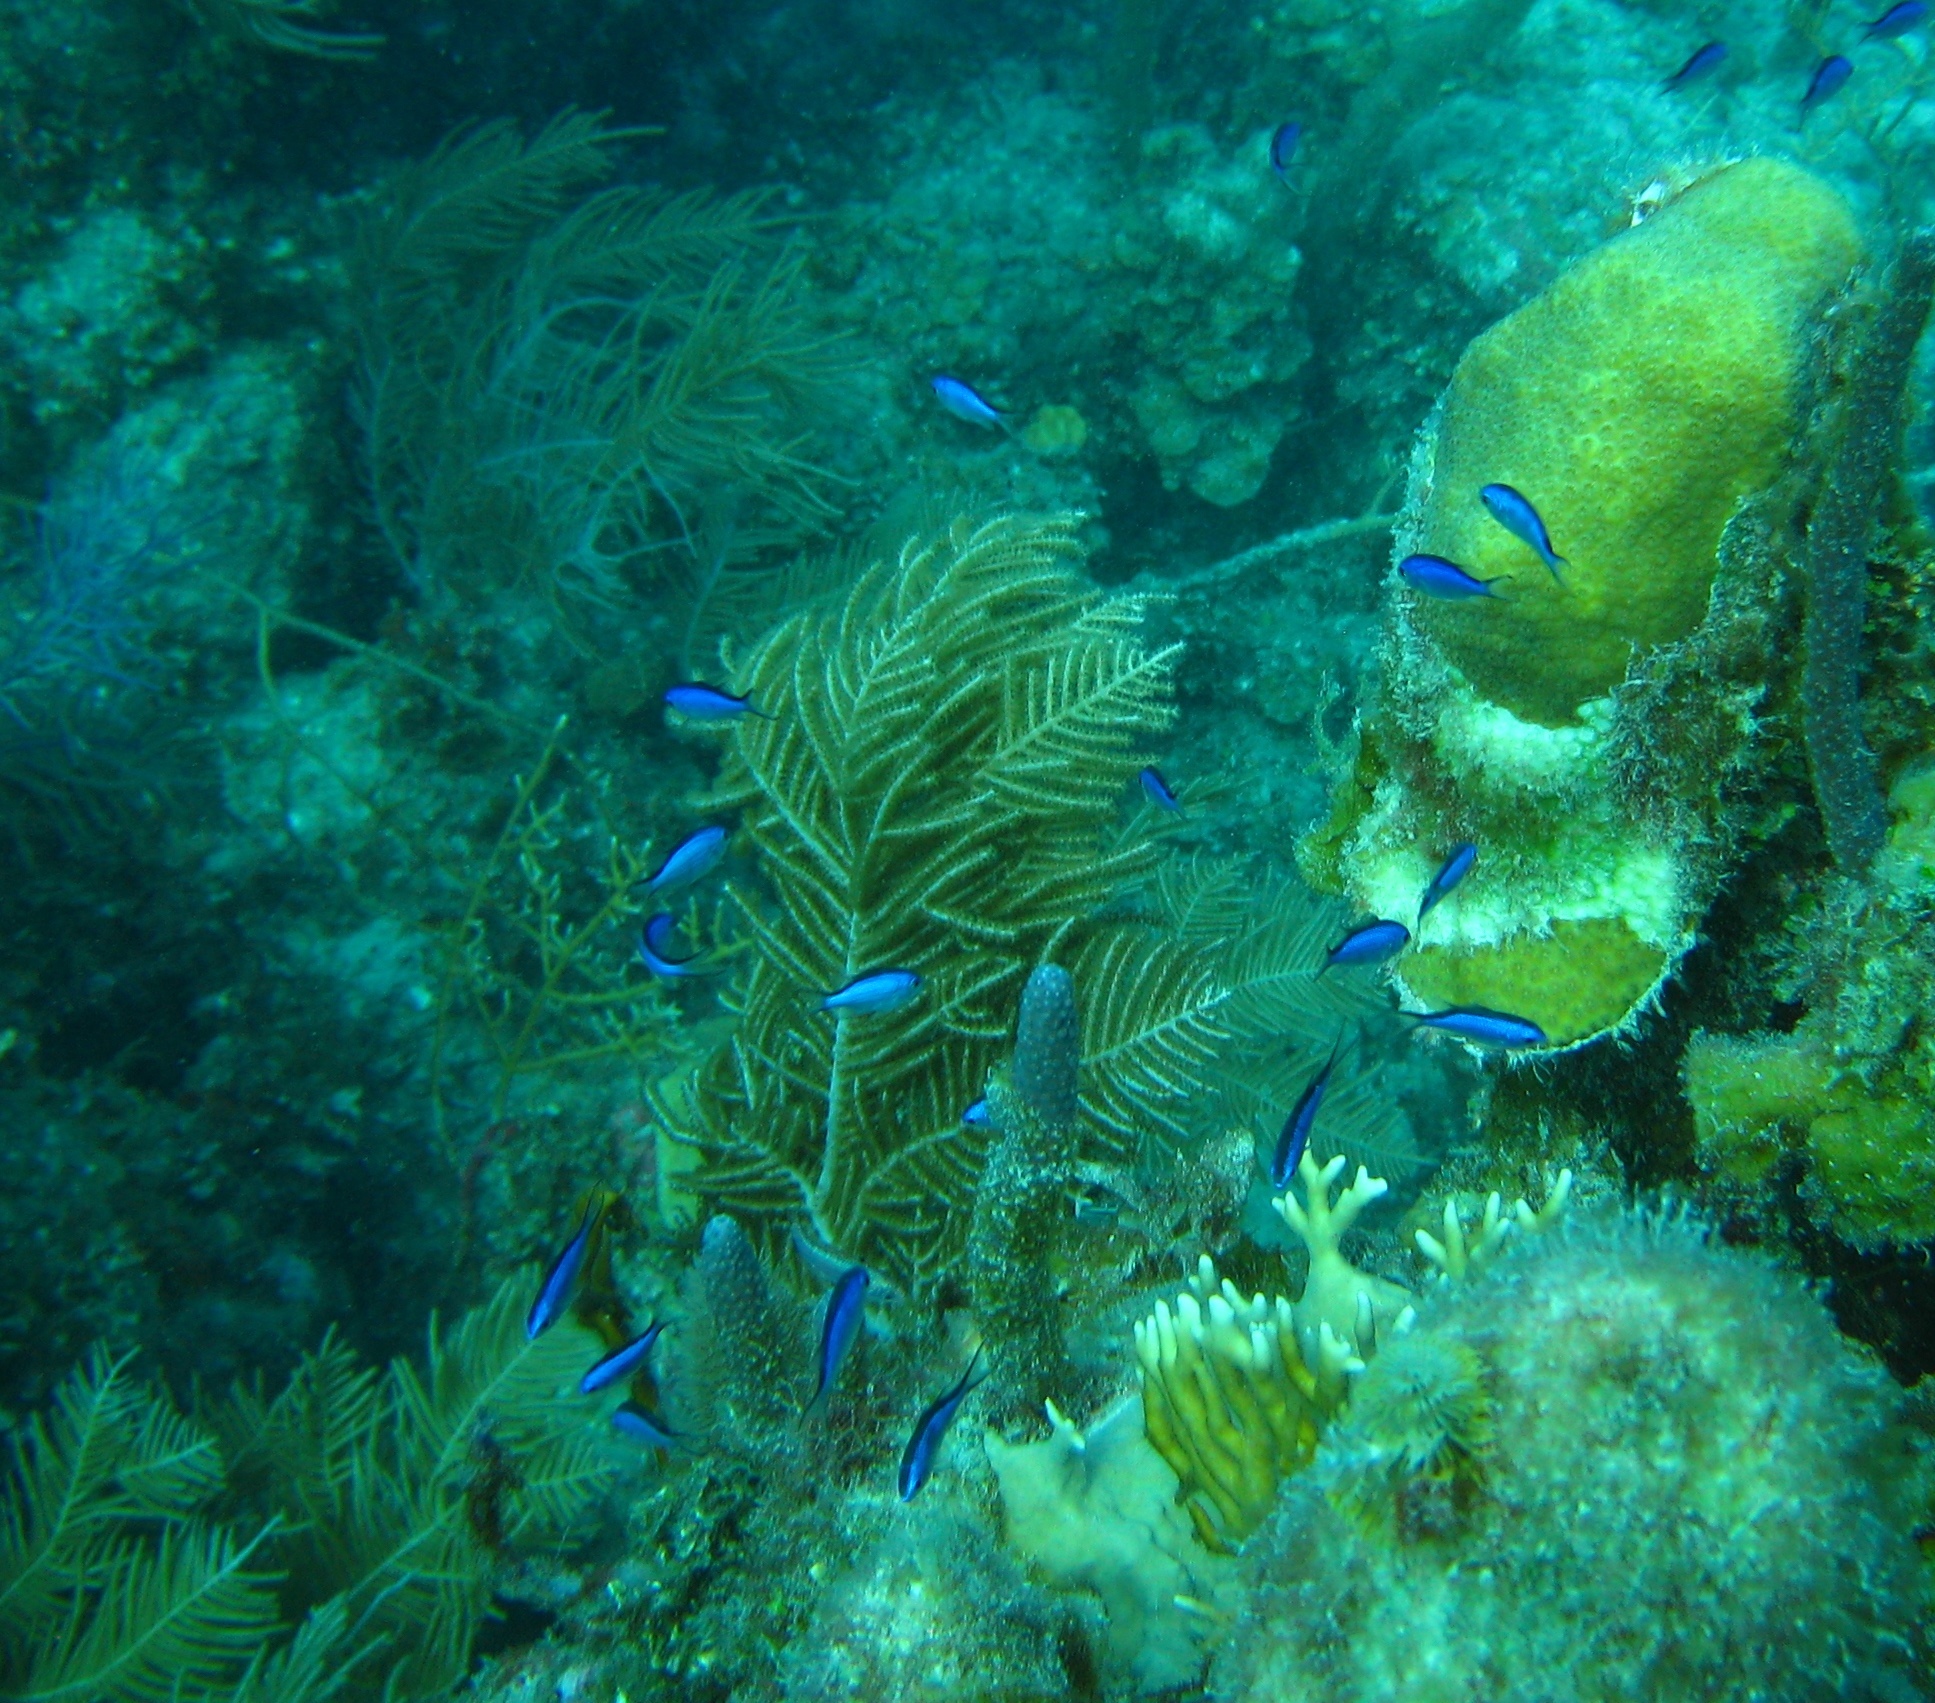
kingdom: Animalia
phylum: Chordata
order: Perciformes
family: Pomacentridae
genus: Chromis
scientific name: Chromis cyanea
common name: Blue chromis
